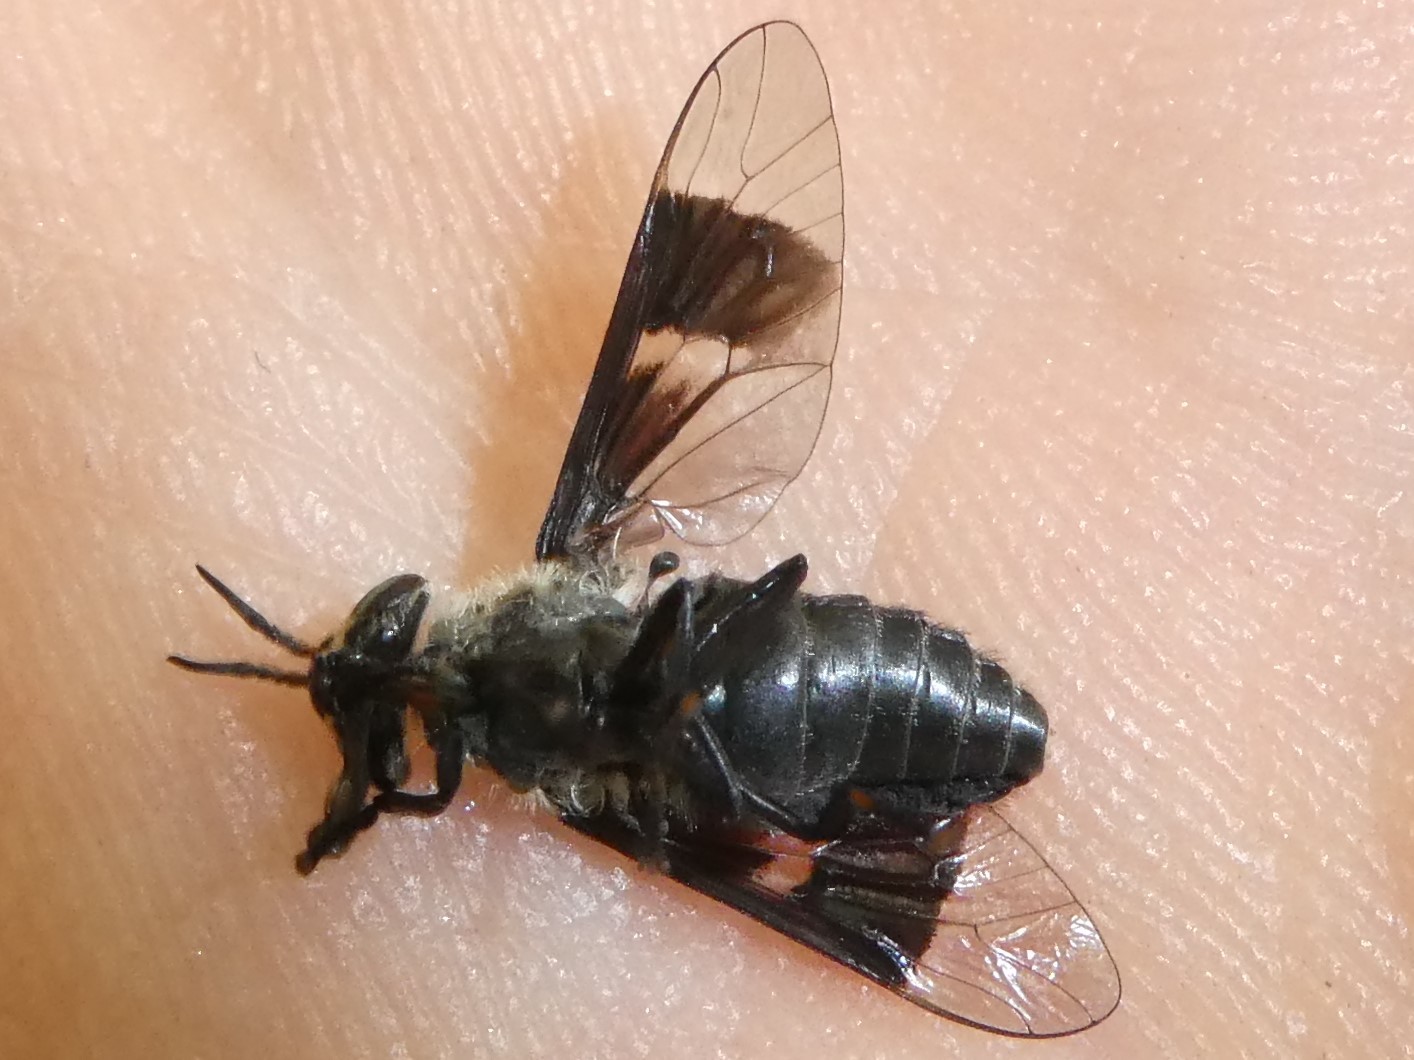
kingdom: Animalia
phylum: Arthropoda
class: Insecta
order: Diptera
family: Tabanidae
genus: Chrysops
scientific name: Chrysops carbonarius
